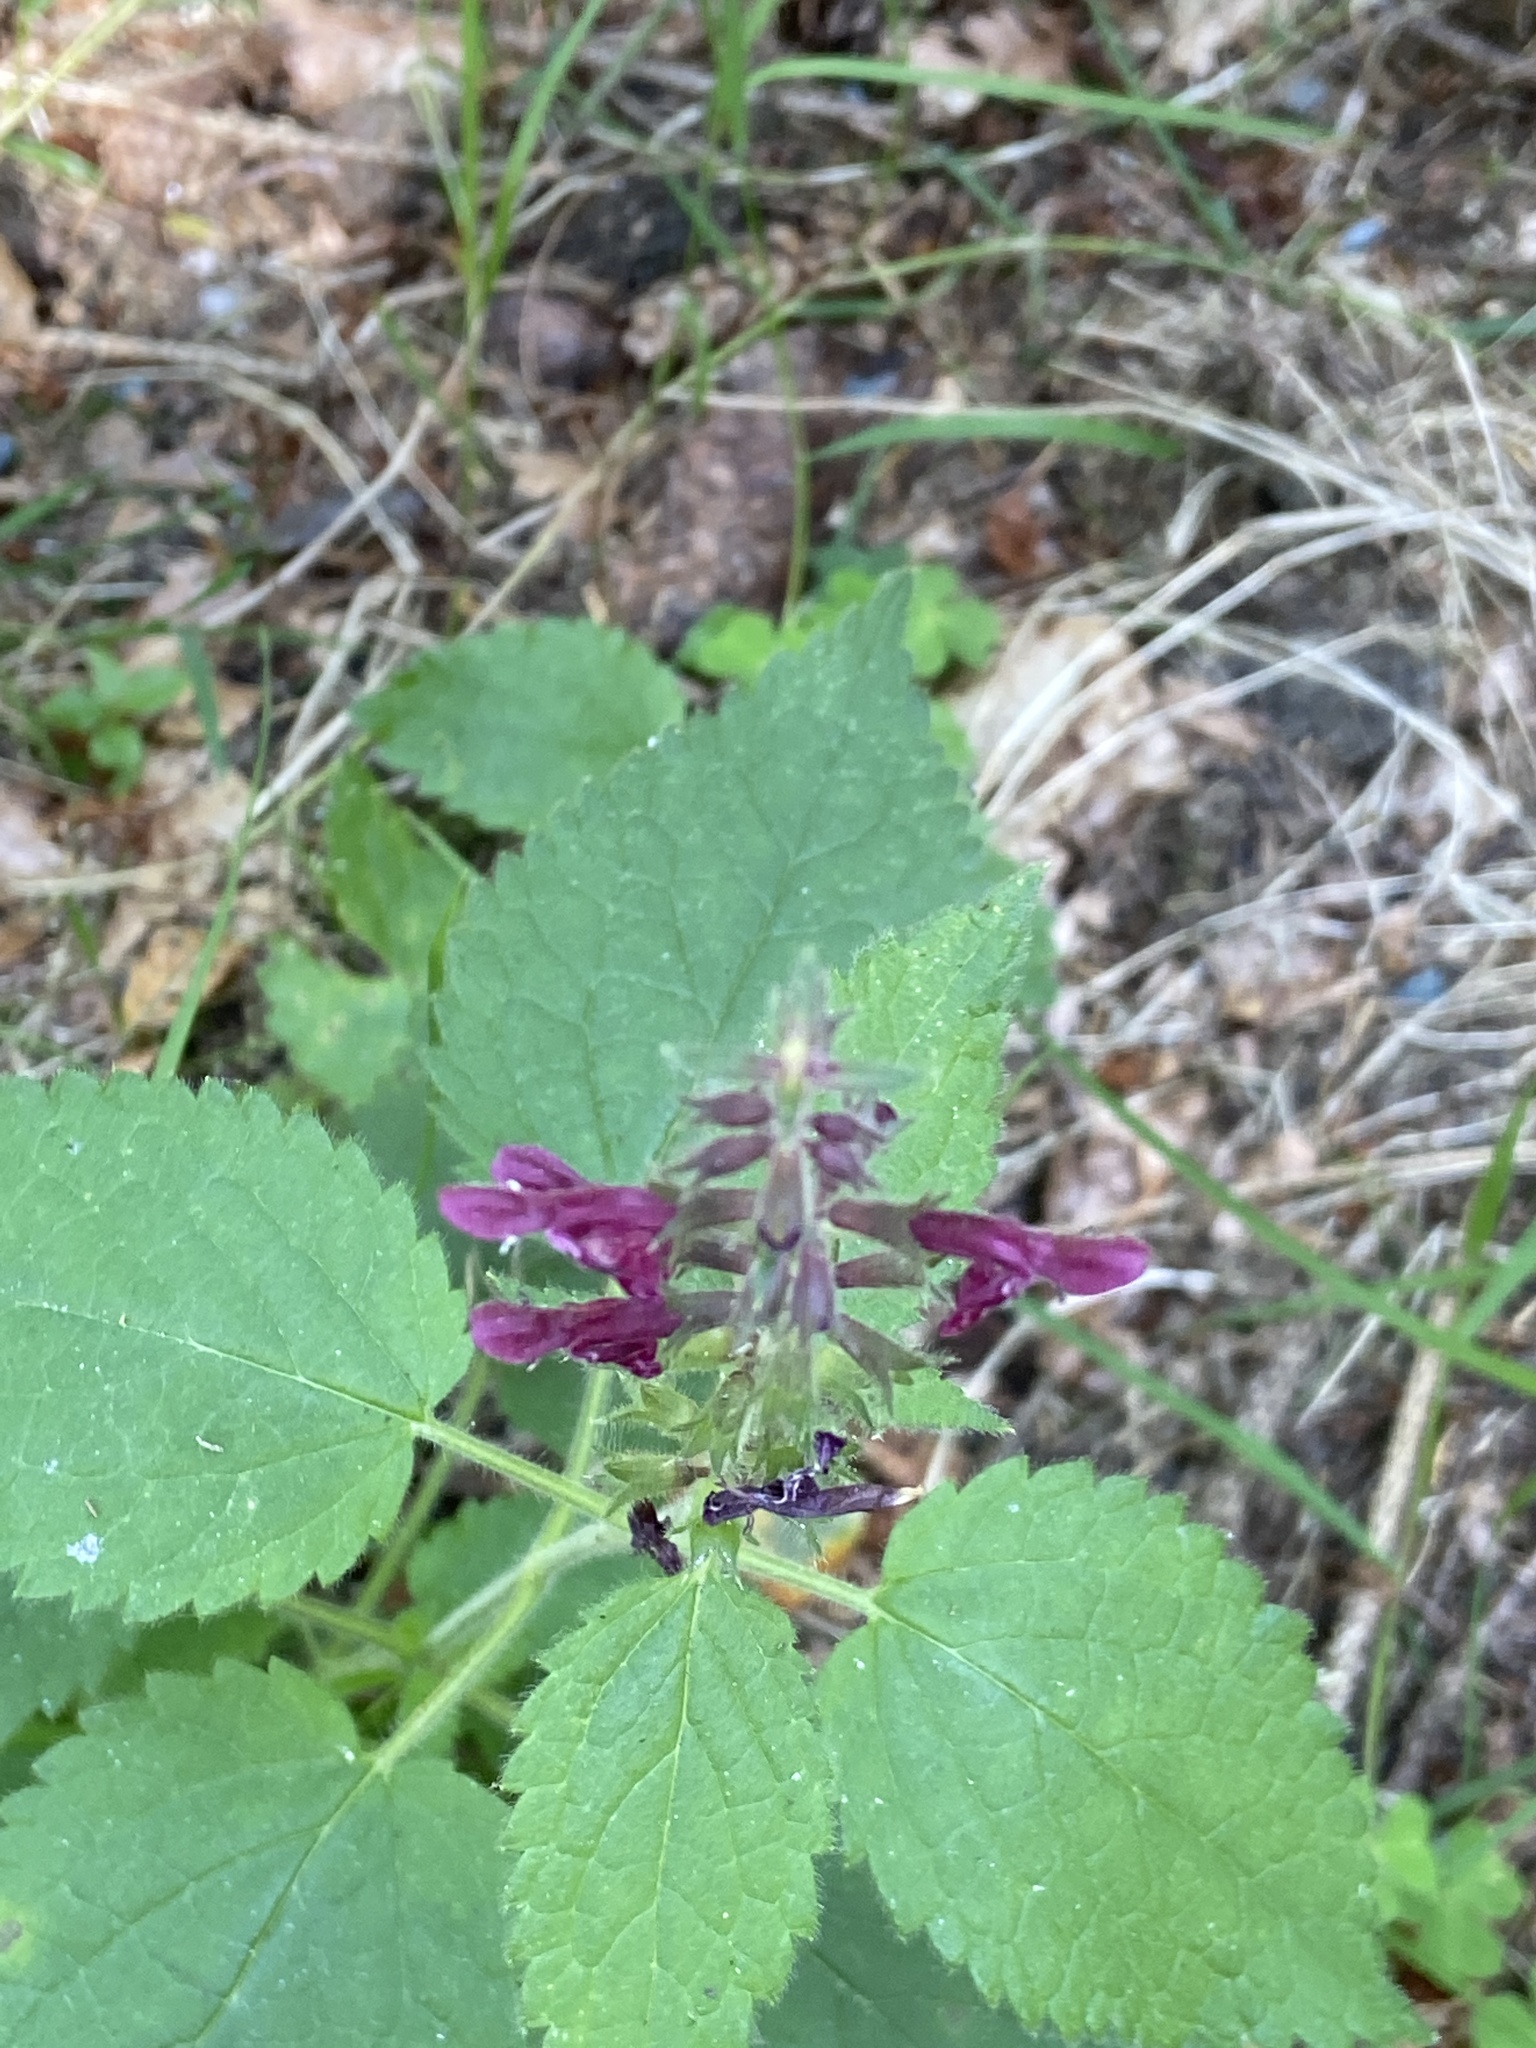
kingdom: Plantae
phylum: Tracheophyta
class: Magnoliopsida
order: Lamiales
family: Lamiaceae
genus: Stachys
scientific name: Stachys sylvatica
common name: Hedge woundwort
